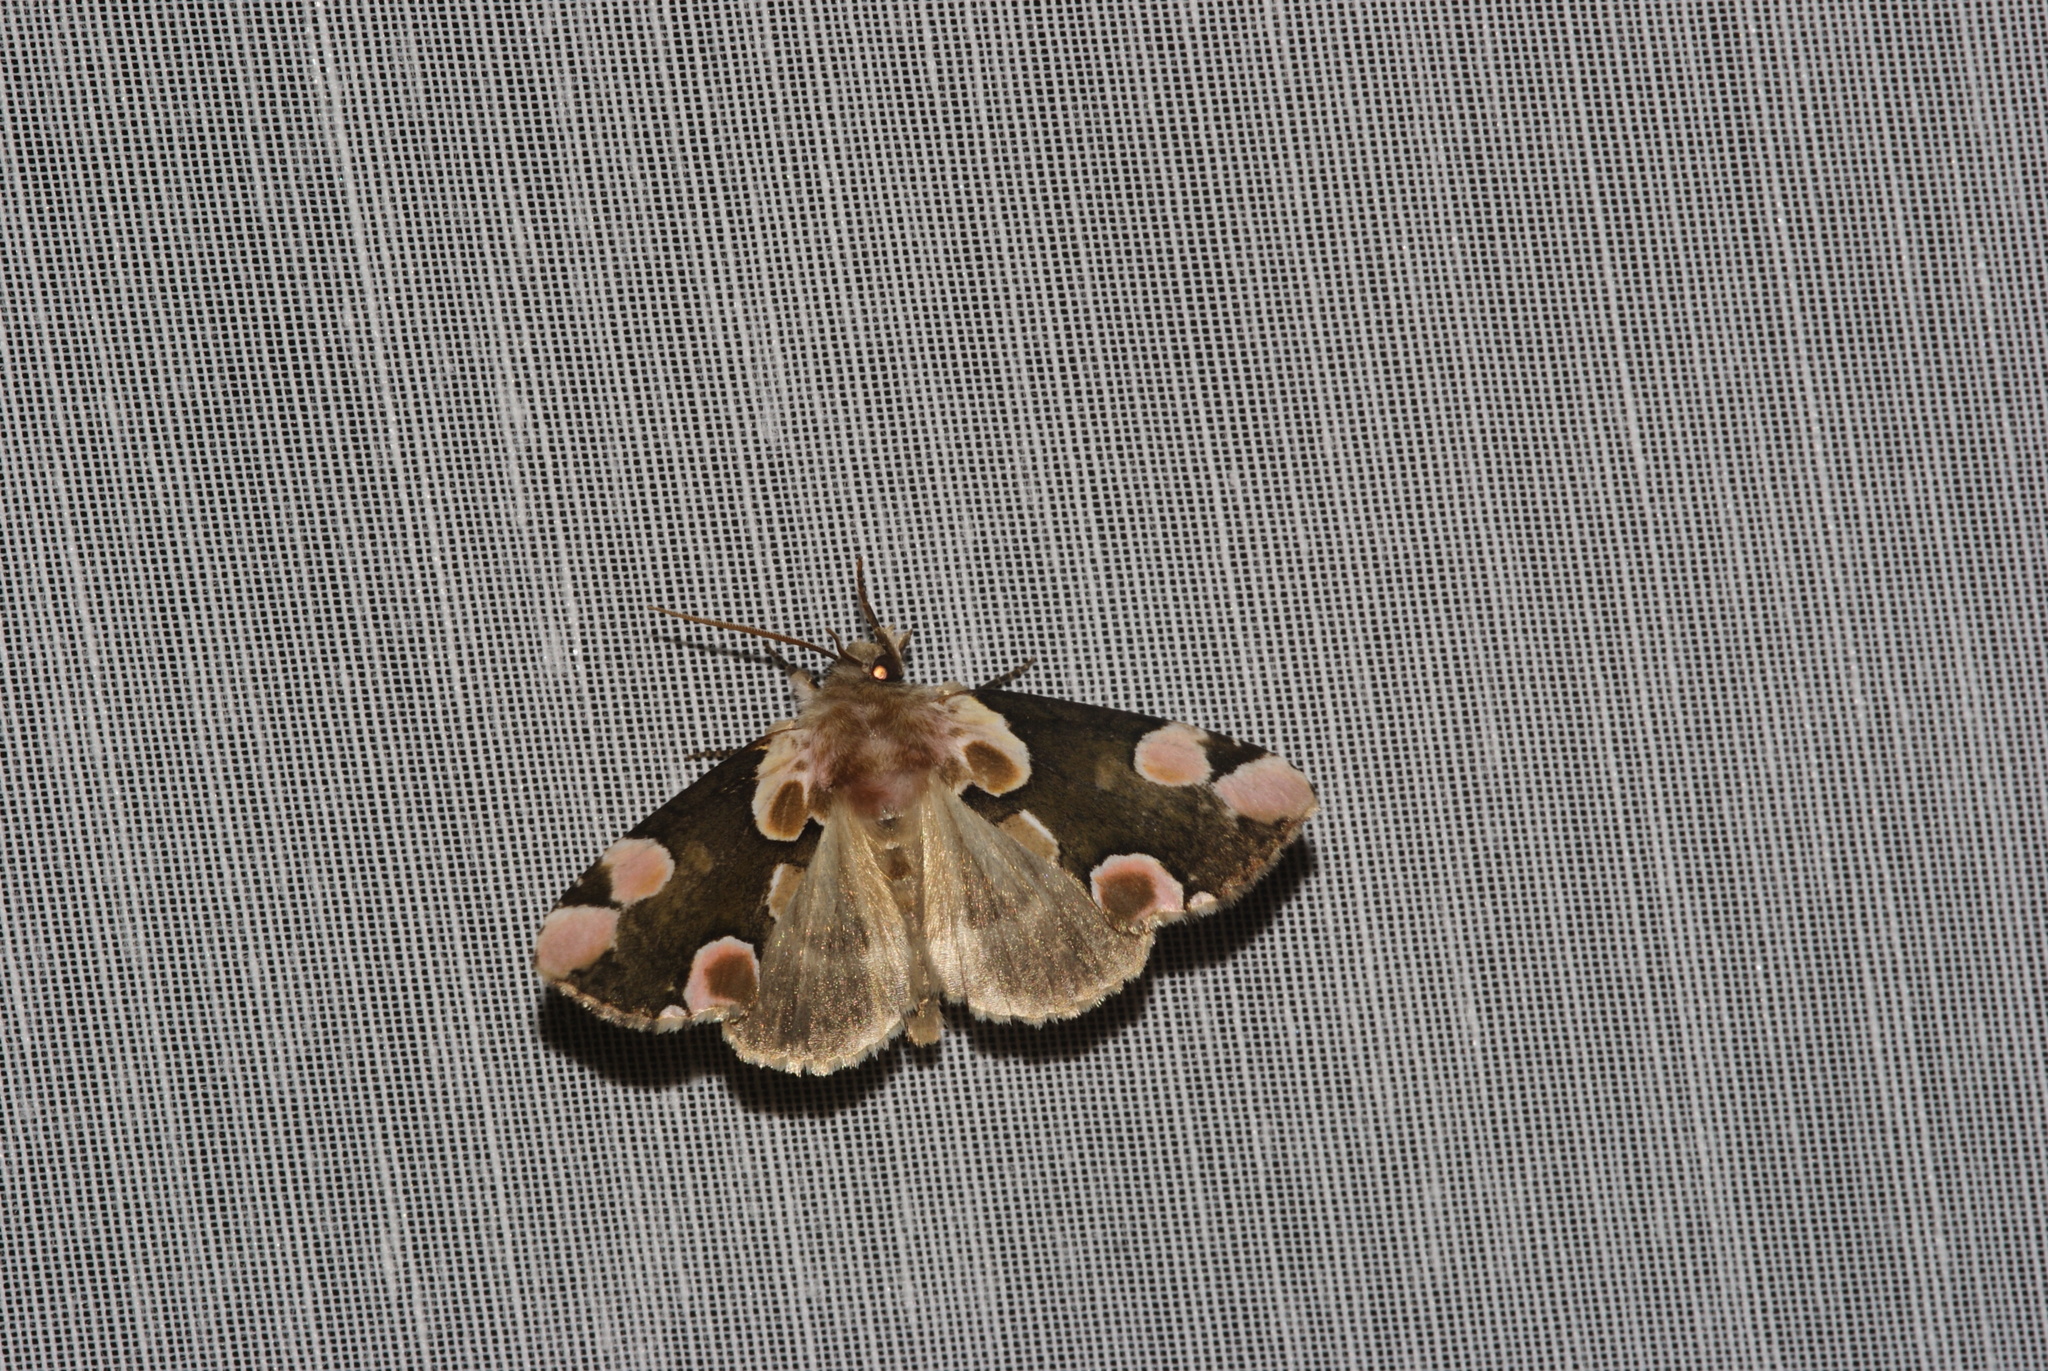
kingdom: Animalia
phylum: Arthropoda
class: Insecta
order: Lepidoptera
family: Drepanidae
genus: Thyatira
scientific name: Thyatira batis
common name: Peach blossom
